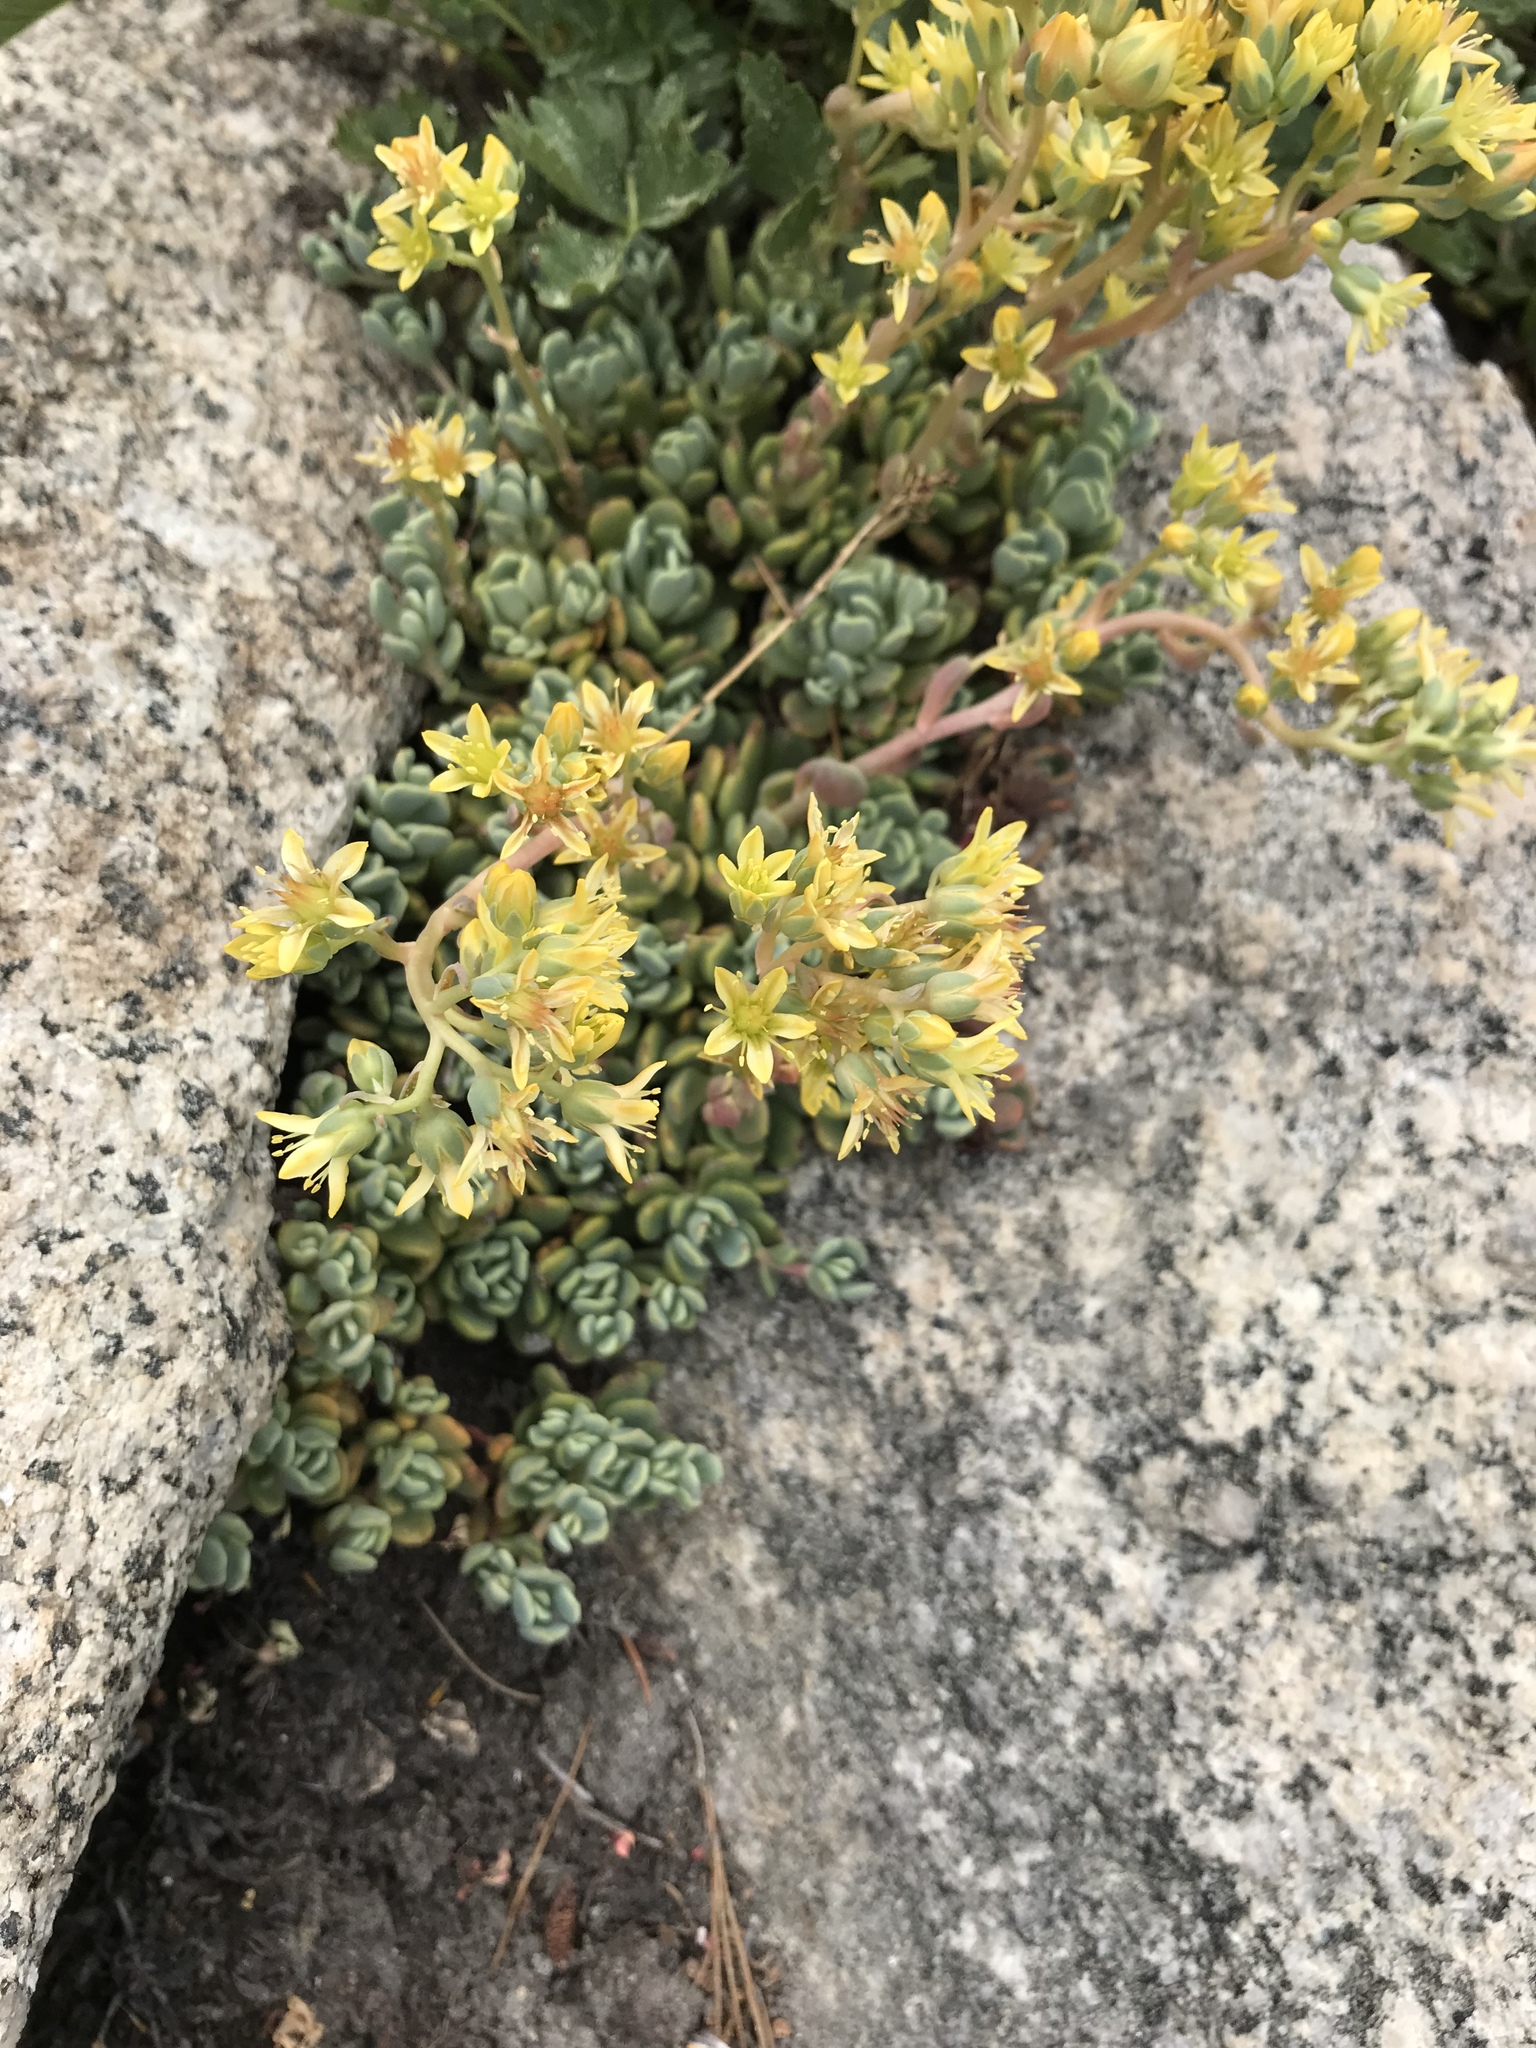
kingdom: Plantae
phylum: Tracheophyta
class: Magnoliopsida
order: Saxifragales
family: Crassulaceae
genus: Sedum
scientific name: Sedum obtusatum
